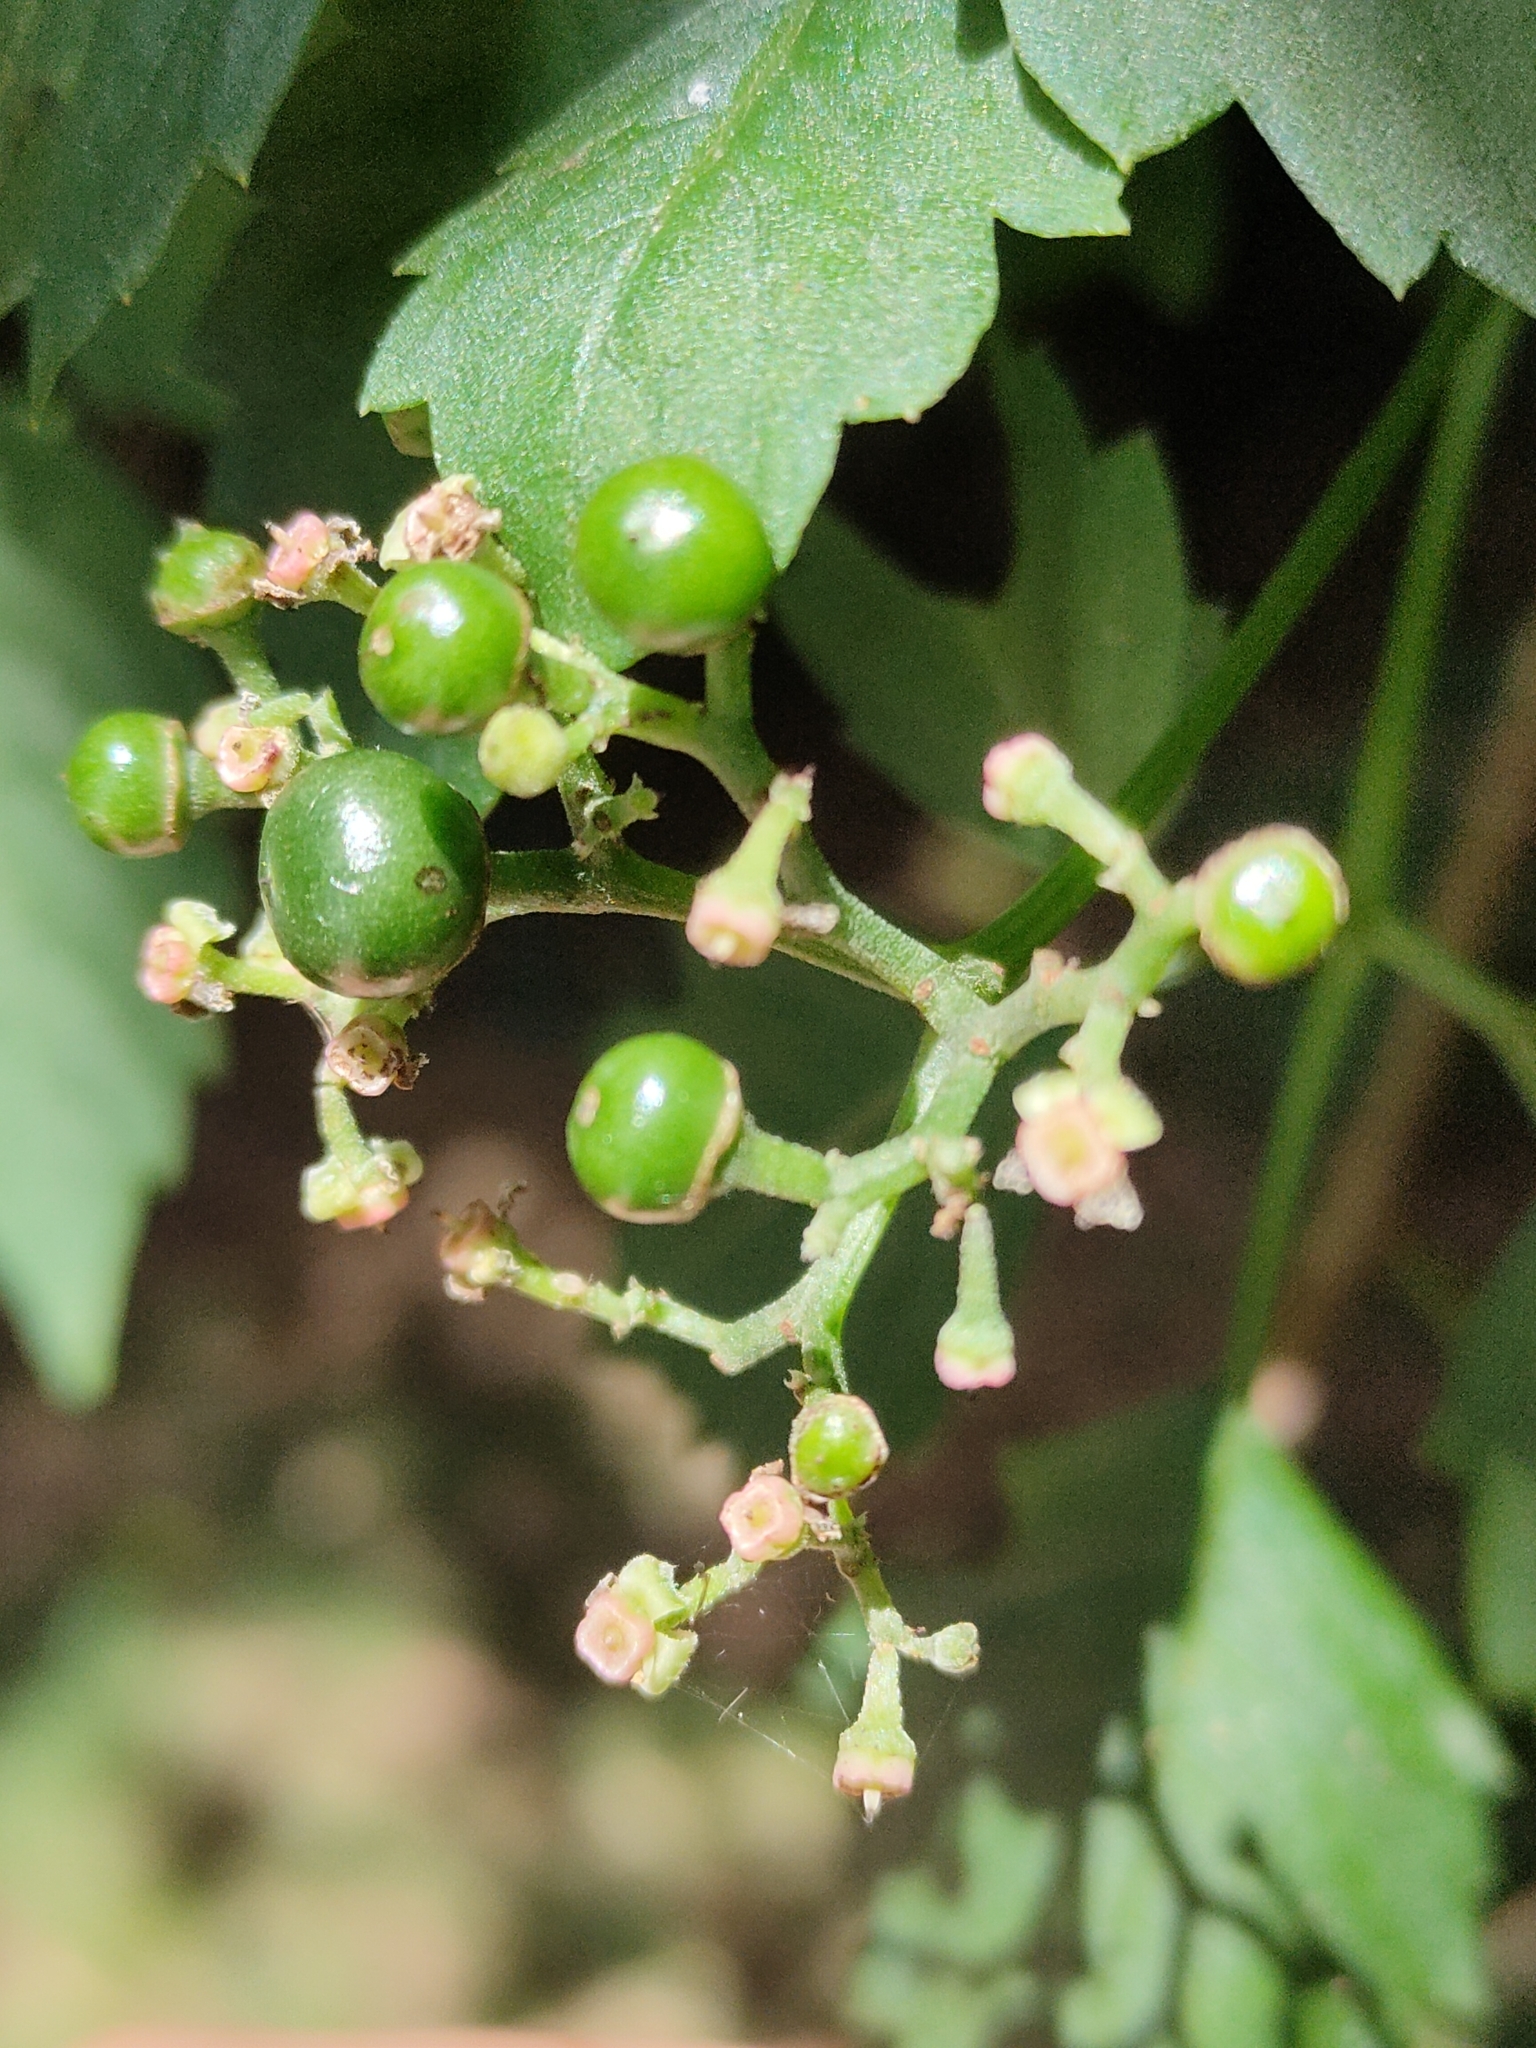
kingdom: Plantae
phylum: Tracheophyta
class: Magnoliopsida
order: Vitales
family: Vitaceae
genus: Causonis
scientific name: Causonis clematidea
